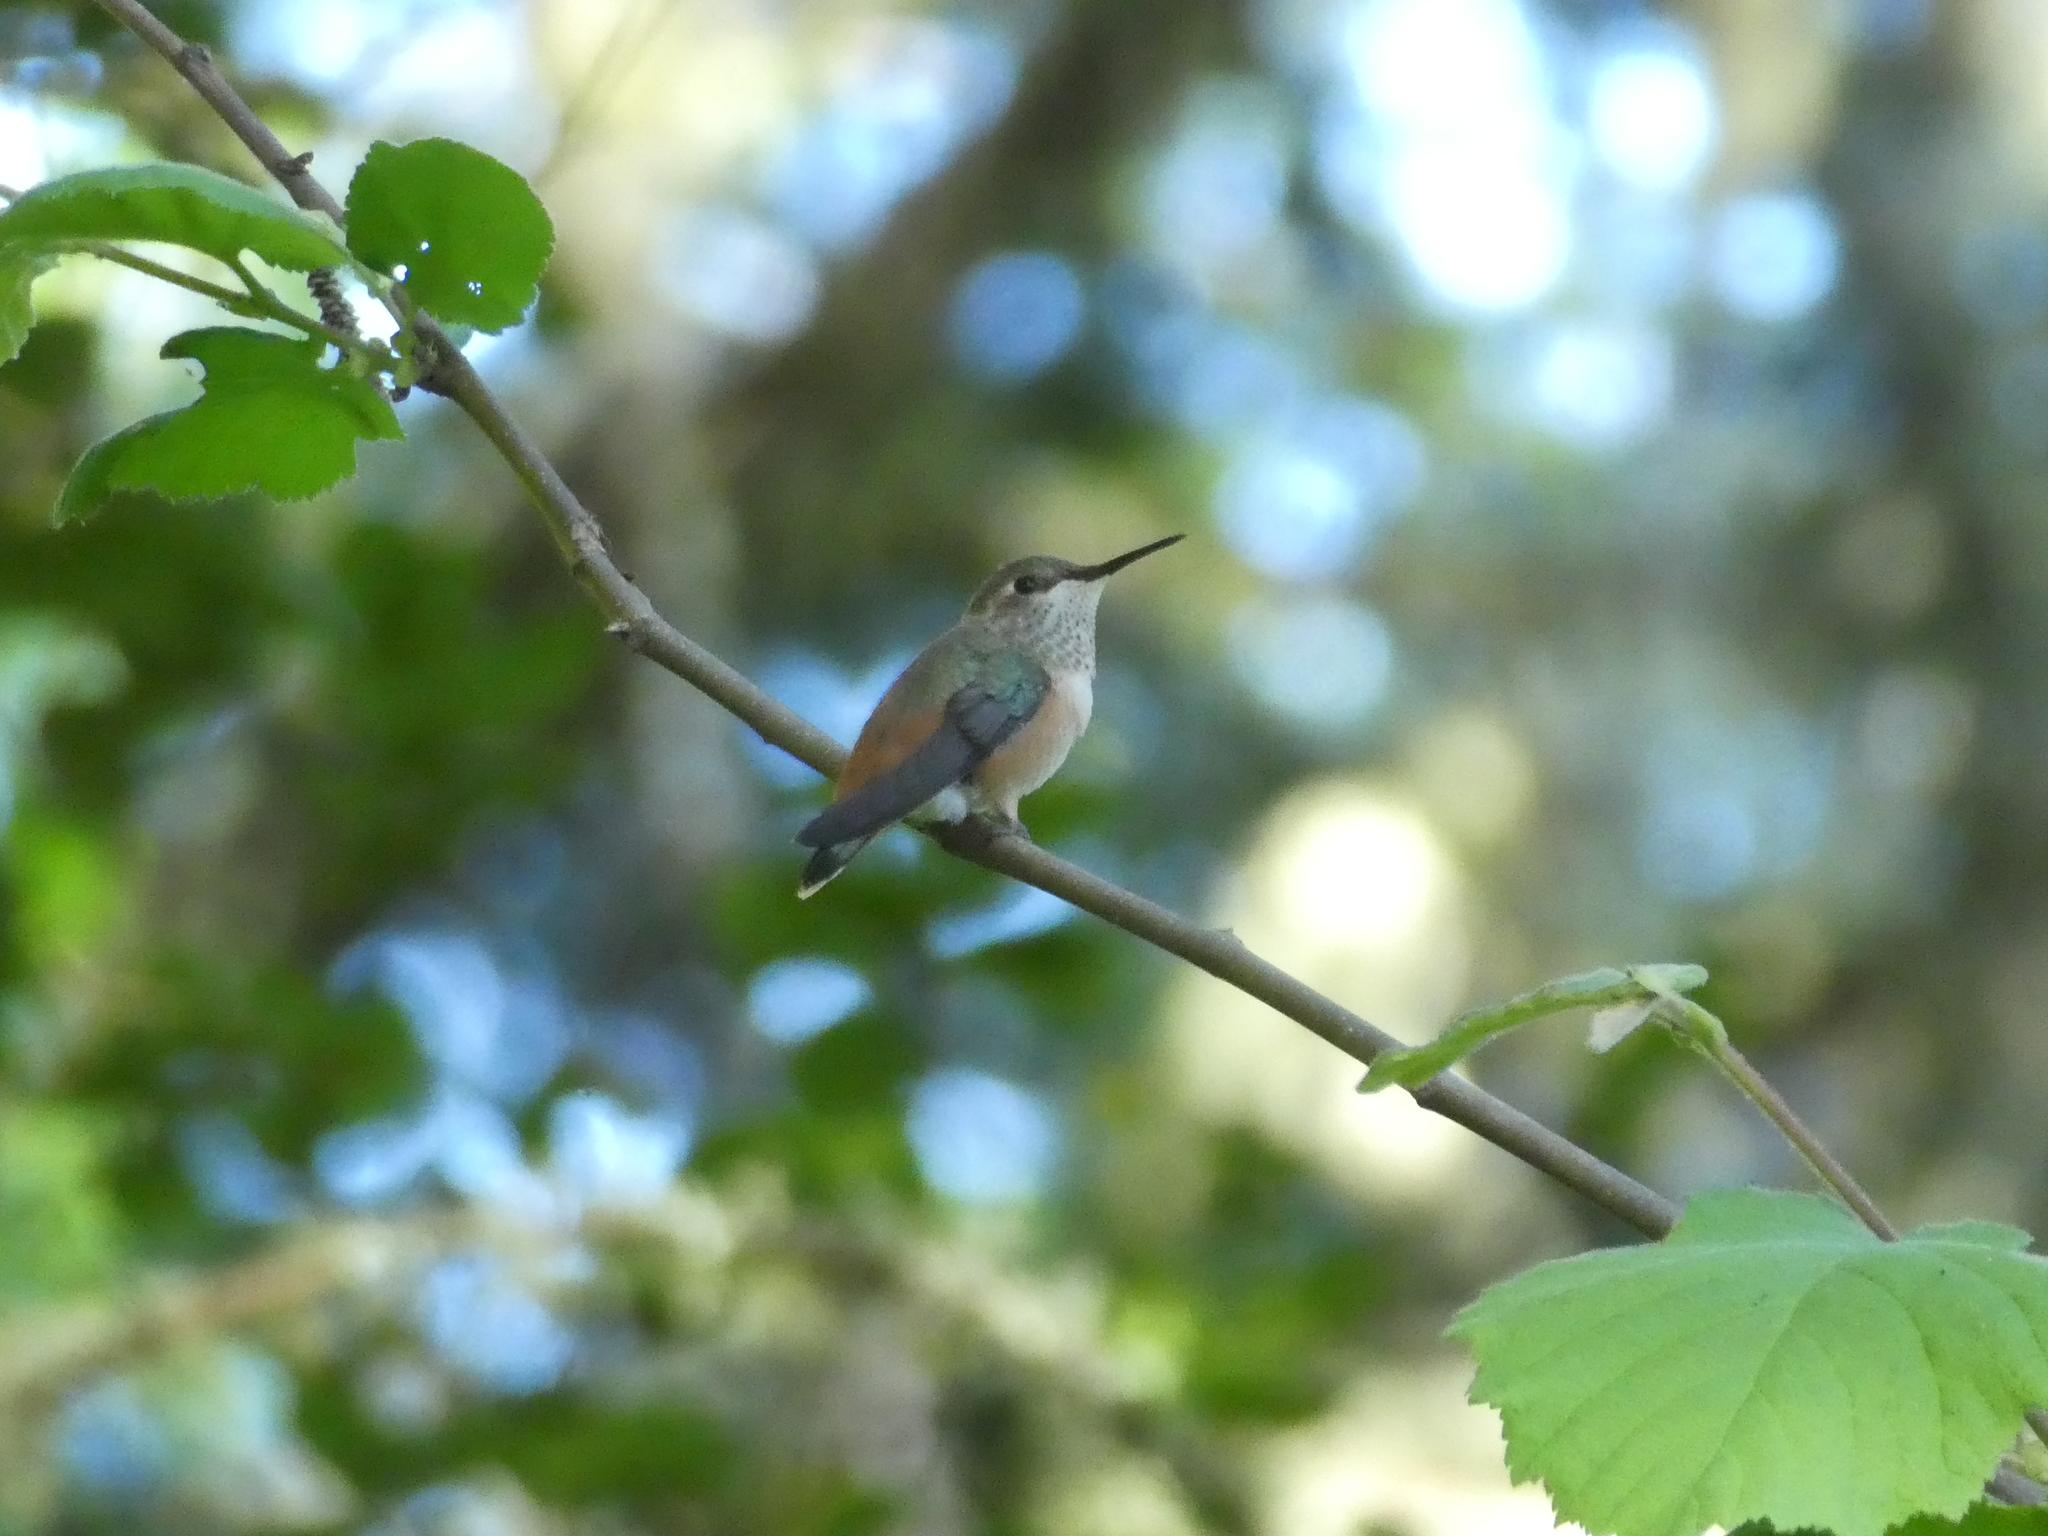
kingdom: Animalia
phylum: Chordata
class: Aves
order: Apodiformes
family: Trochilidae
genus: Selasphorus
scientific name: Selasphorus sasin
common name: Allen's hummingbird
